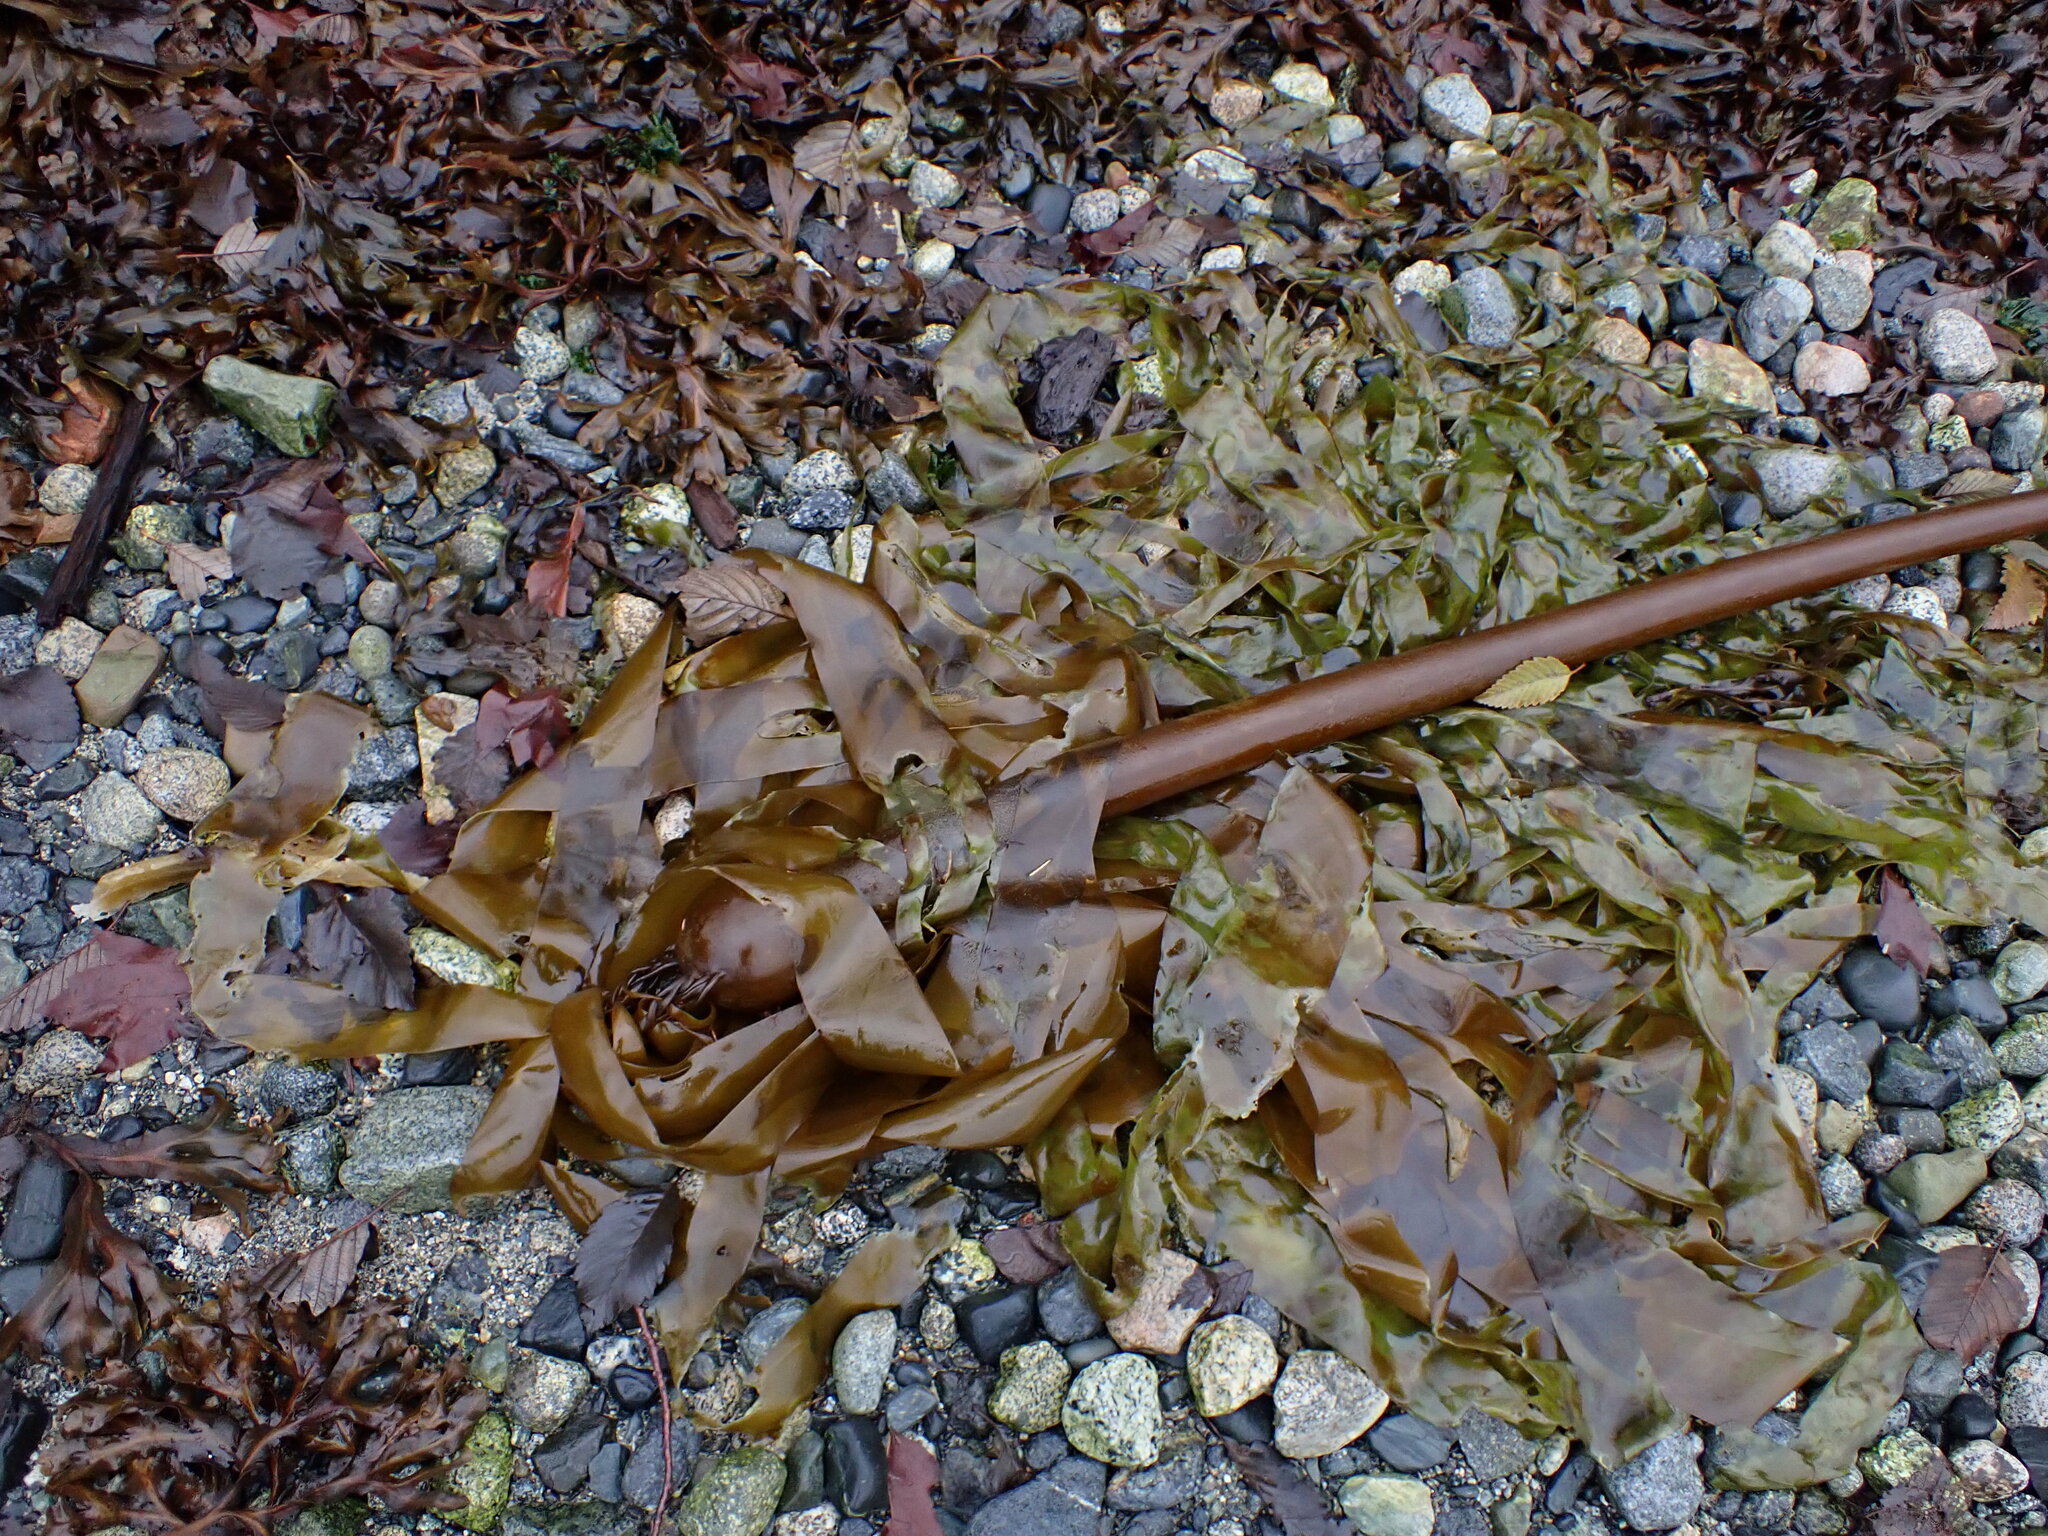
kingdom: Chromista
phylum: Ochrophyta
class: Phaeophyceae
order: Laminariales
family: Laminariaceae
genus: Nereocystis
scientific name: Nereocystis luetkeana
